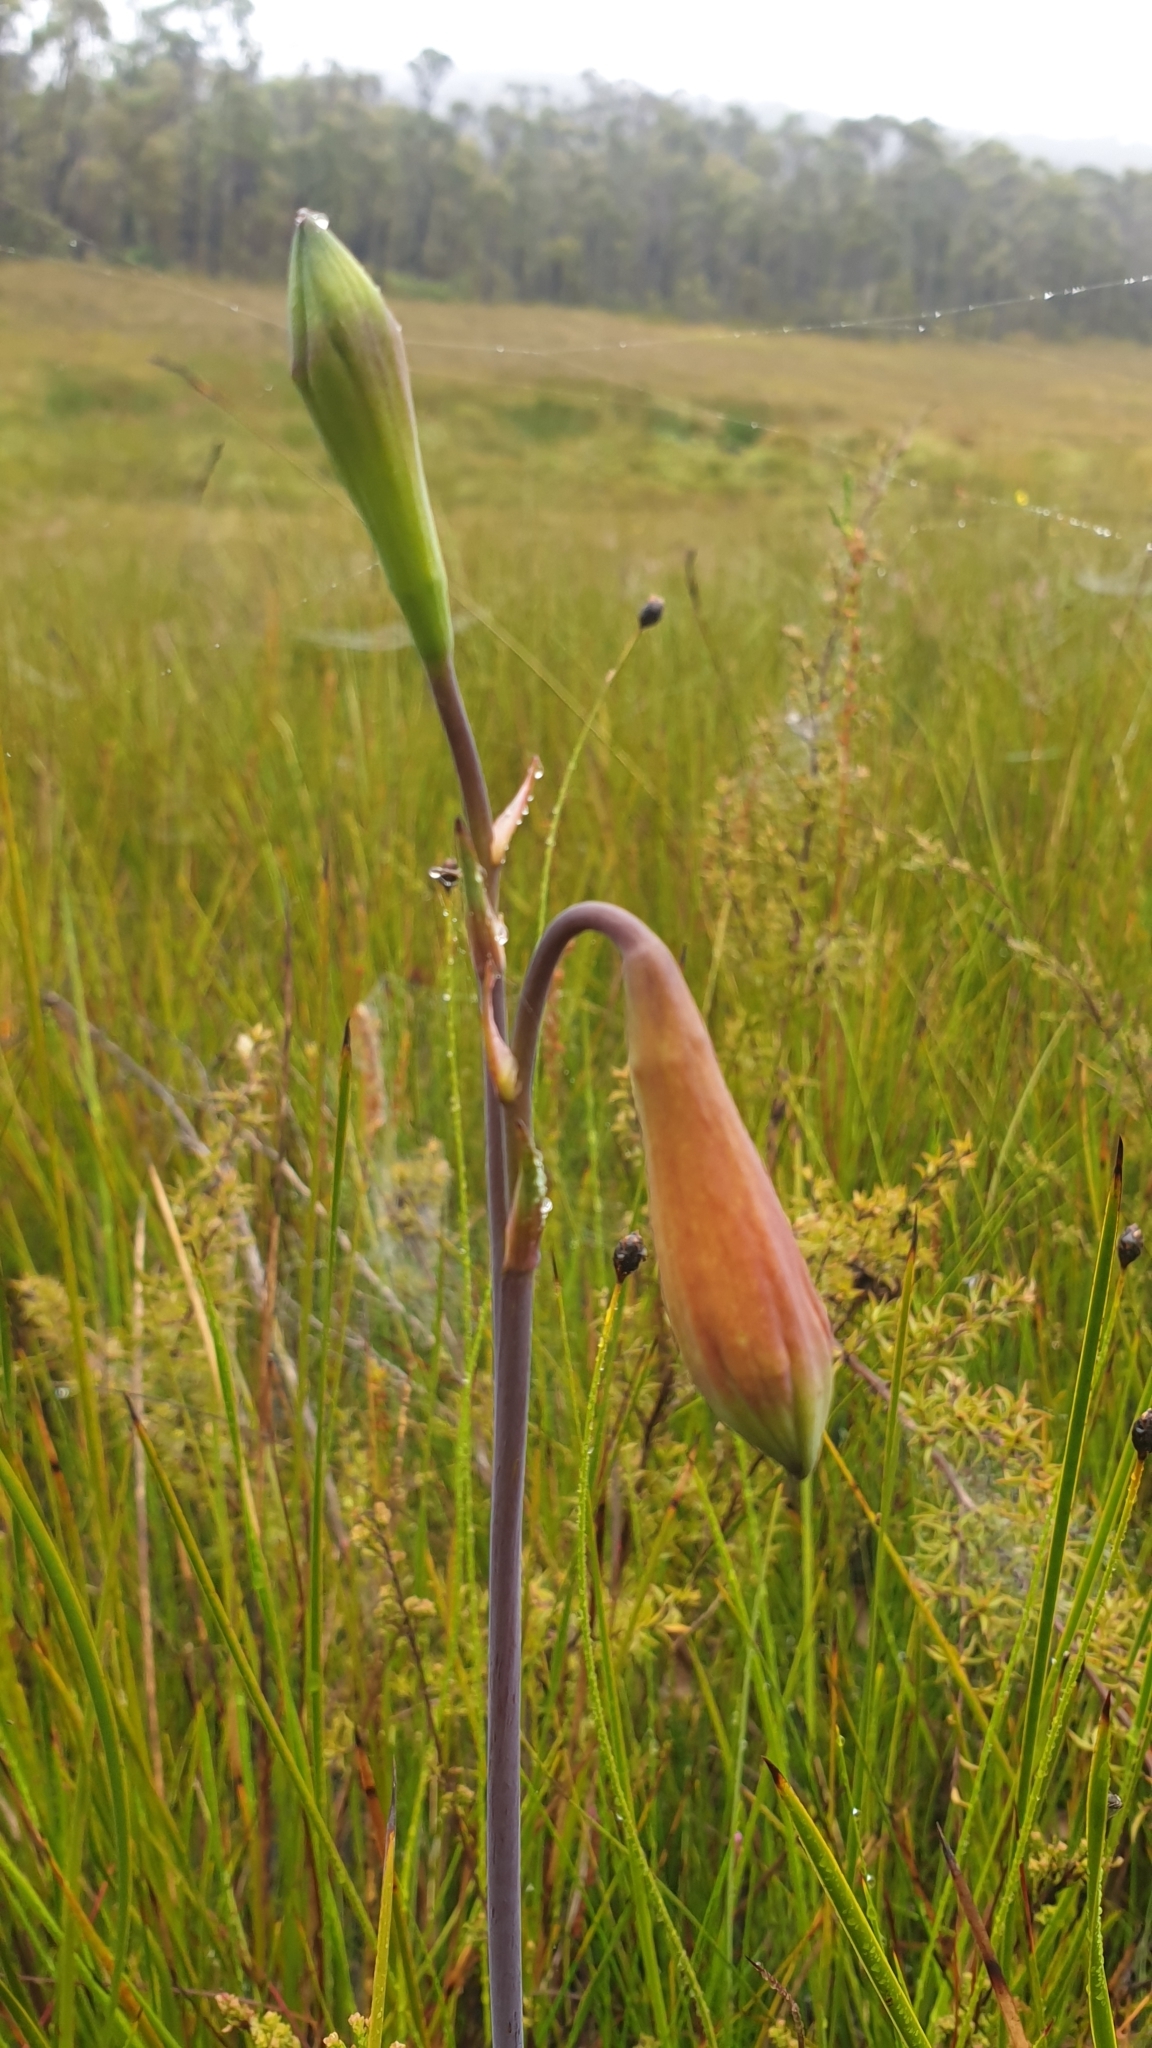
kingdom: Plantae
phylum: Tracheophyta
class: Liliopsida
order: Asparagales
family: Blandfordiaceae
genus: Blandfordia
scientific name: Blandfordia grandiflora
